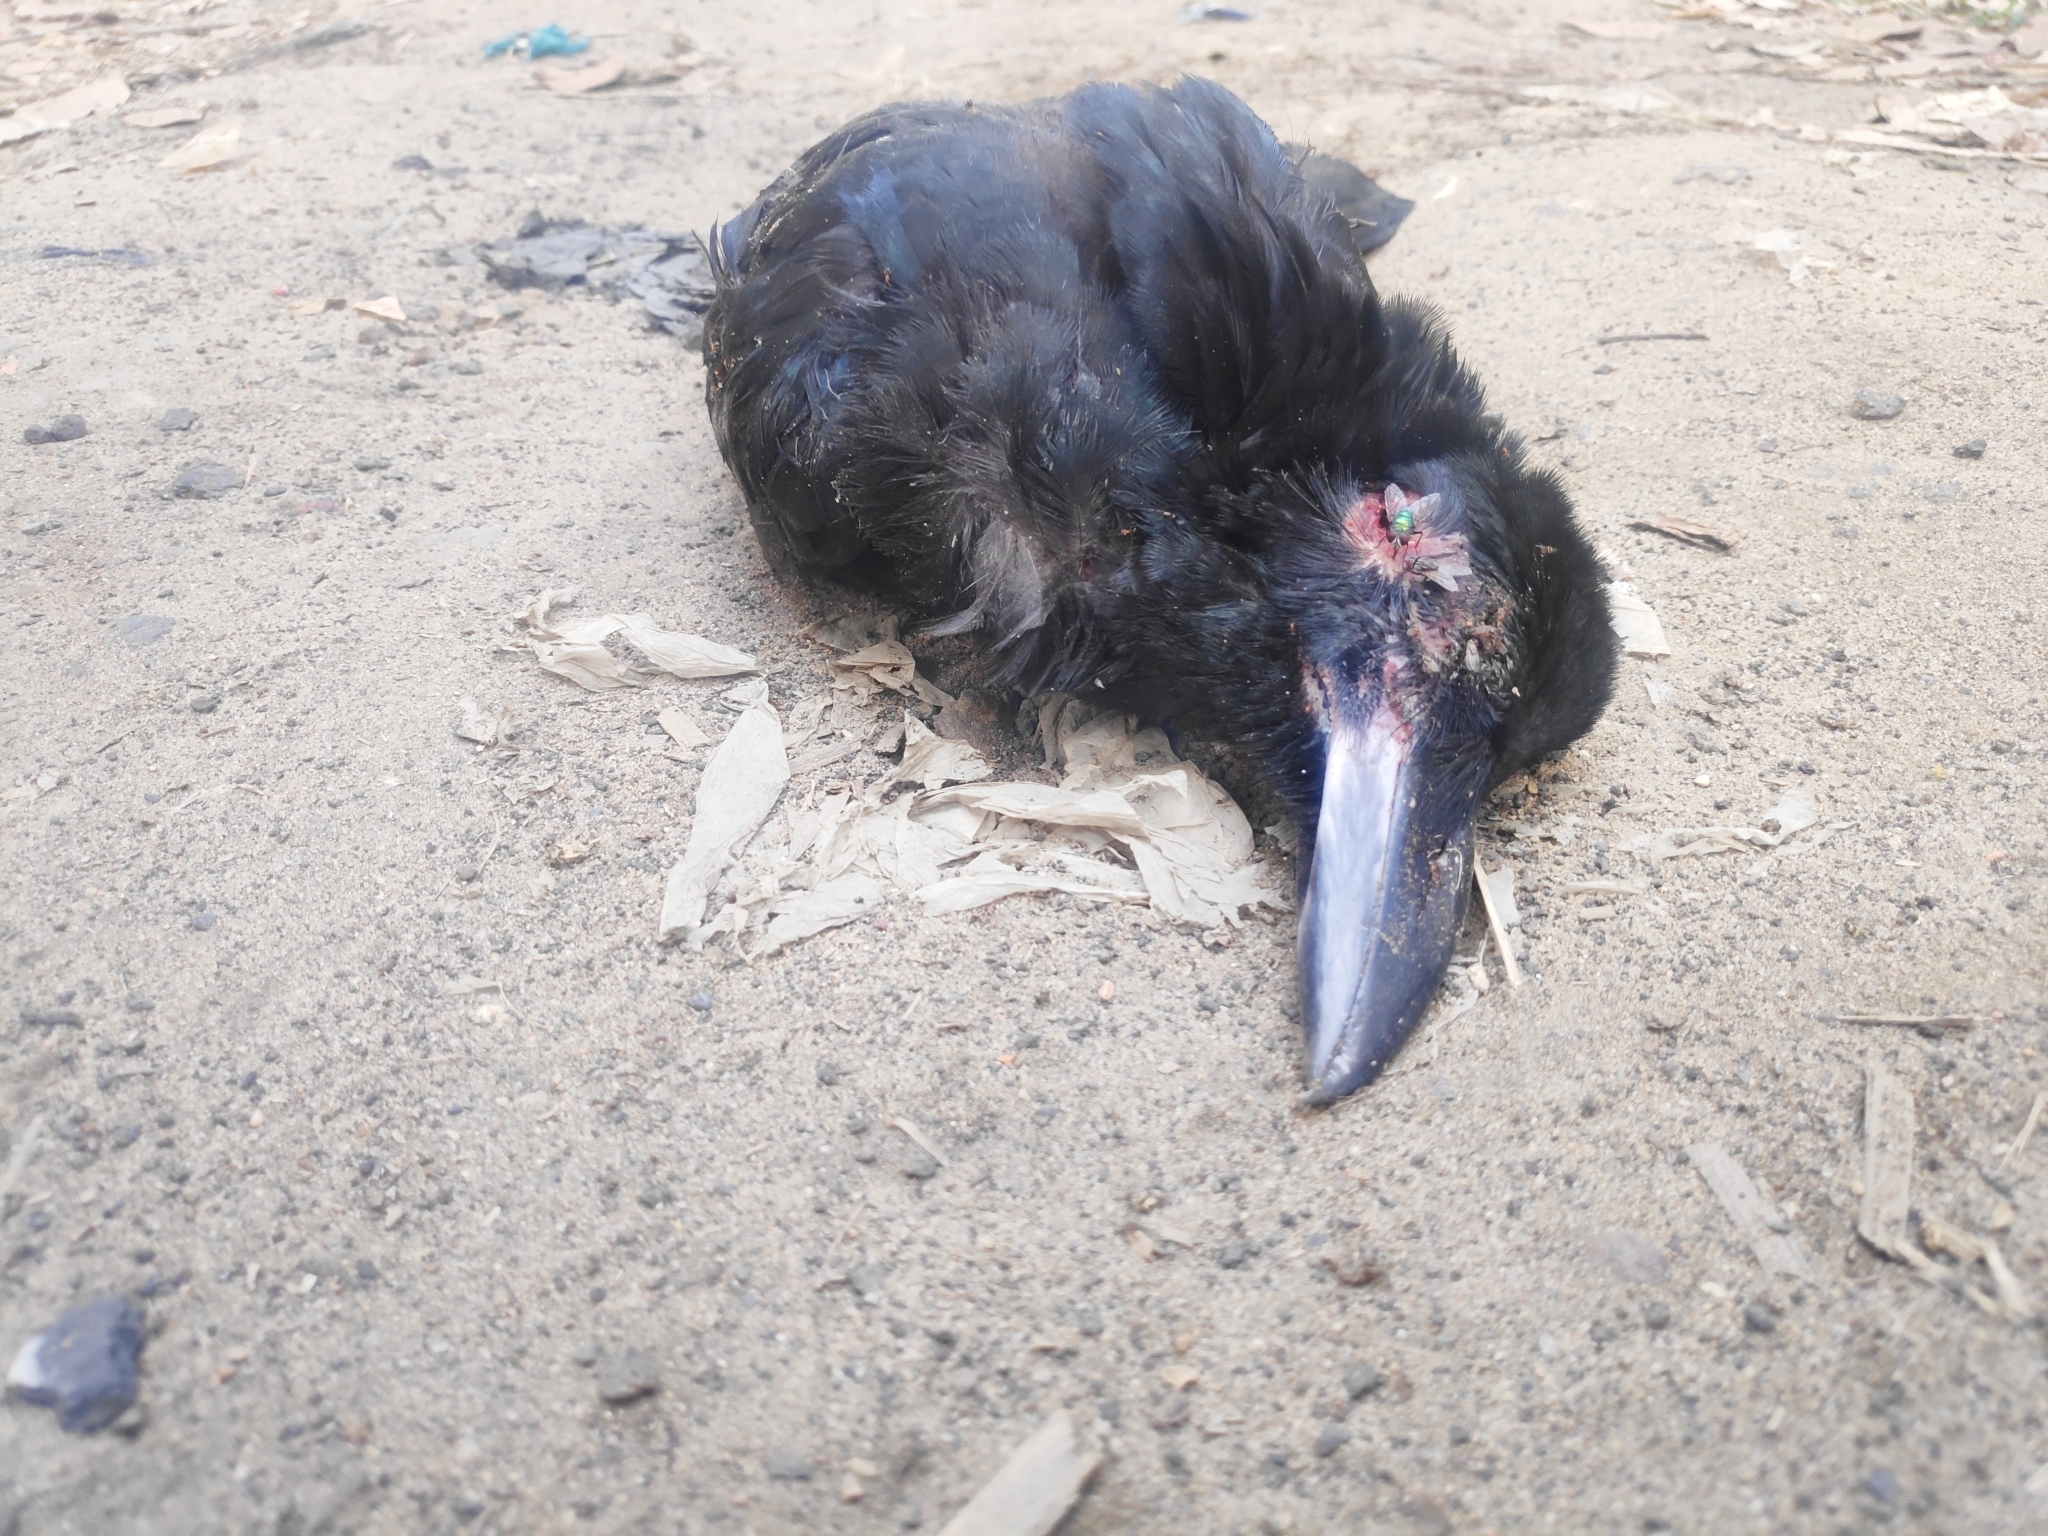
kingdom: Animalia
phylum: Chordata
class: Aves
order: Passeriformes
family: Corvidae
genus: Corvus
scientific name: Corvus macrorhynchos
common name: Large-billed crow
